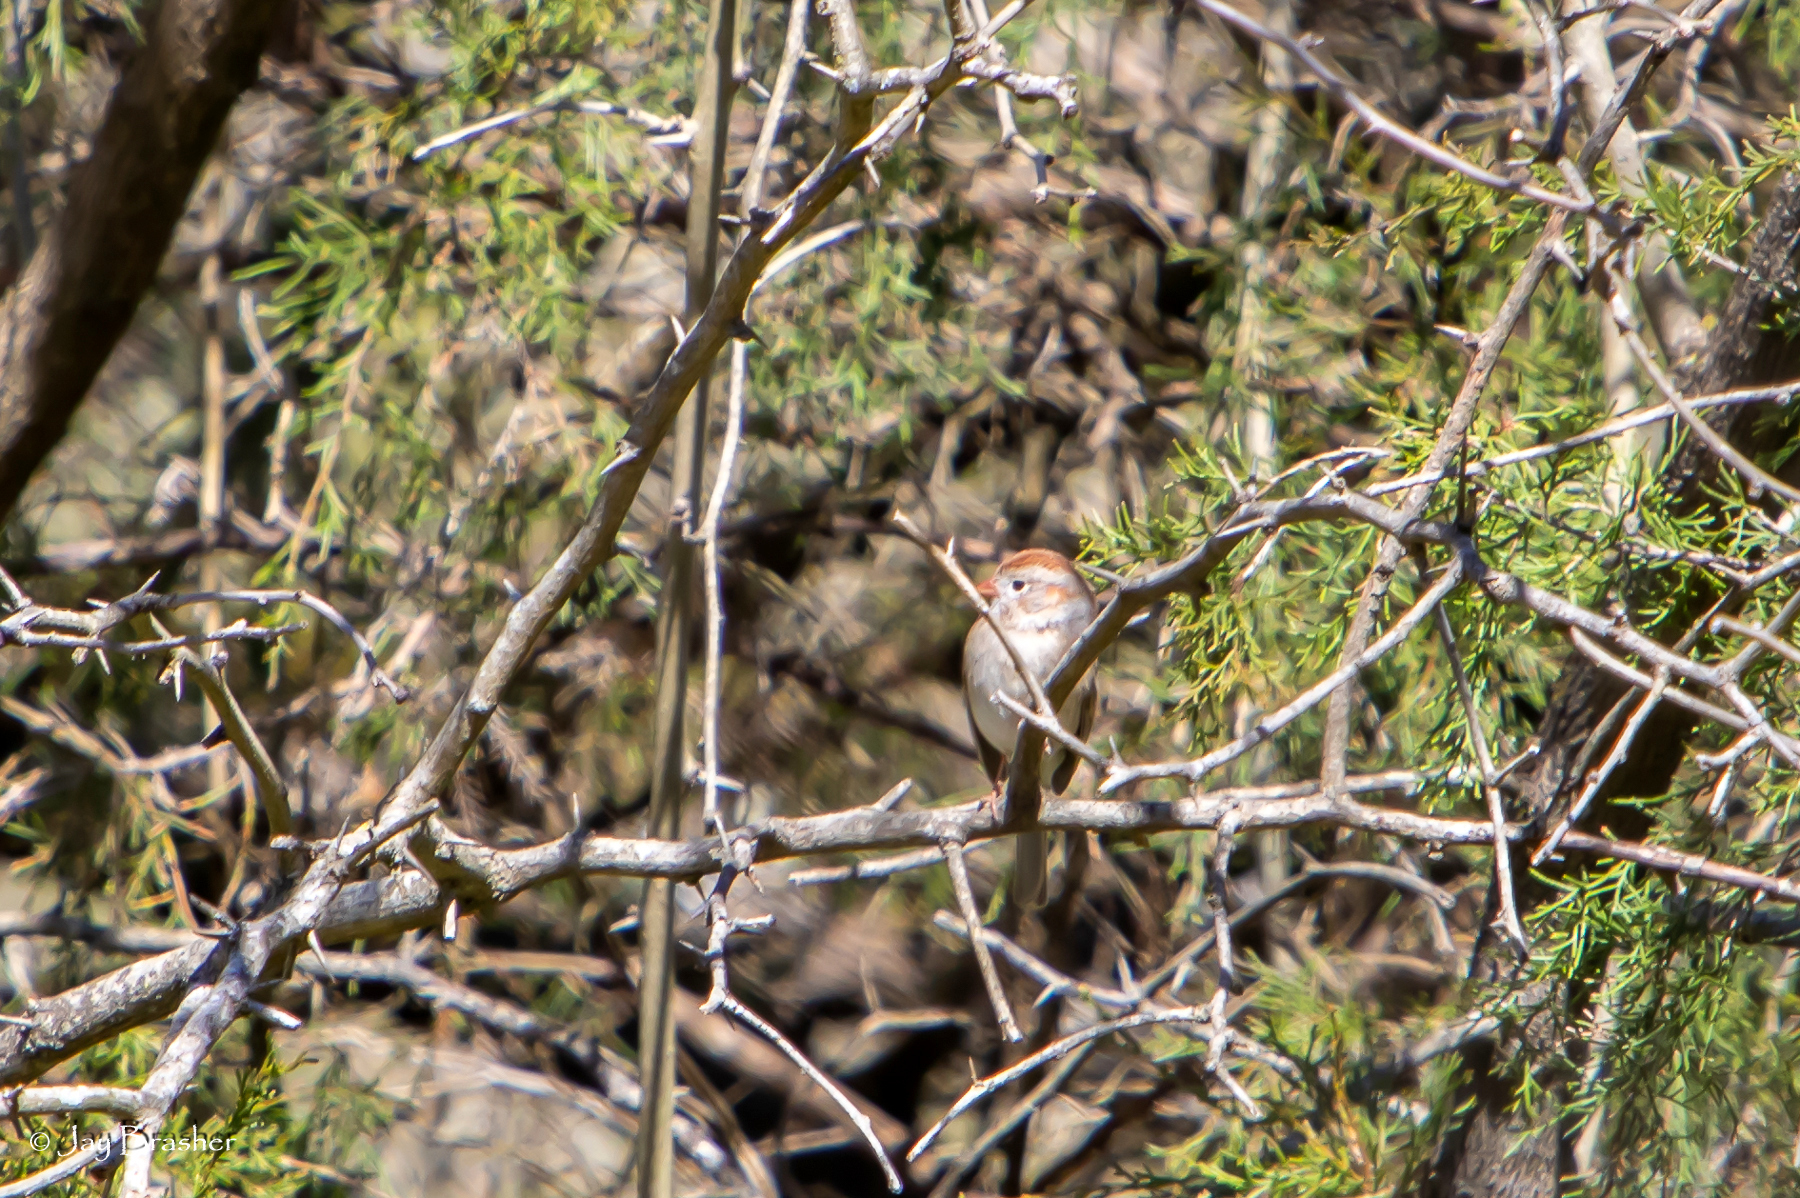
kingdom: Animalia
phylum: Chordata
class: Aves
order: Passeriformes
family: Passerellidae
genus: Spizella
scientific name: Spizella pusilla
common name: Field sparrow
